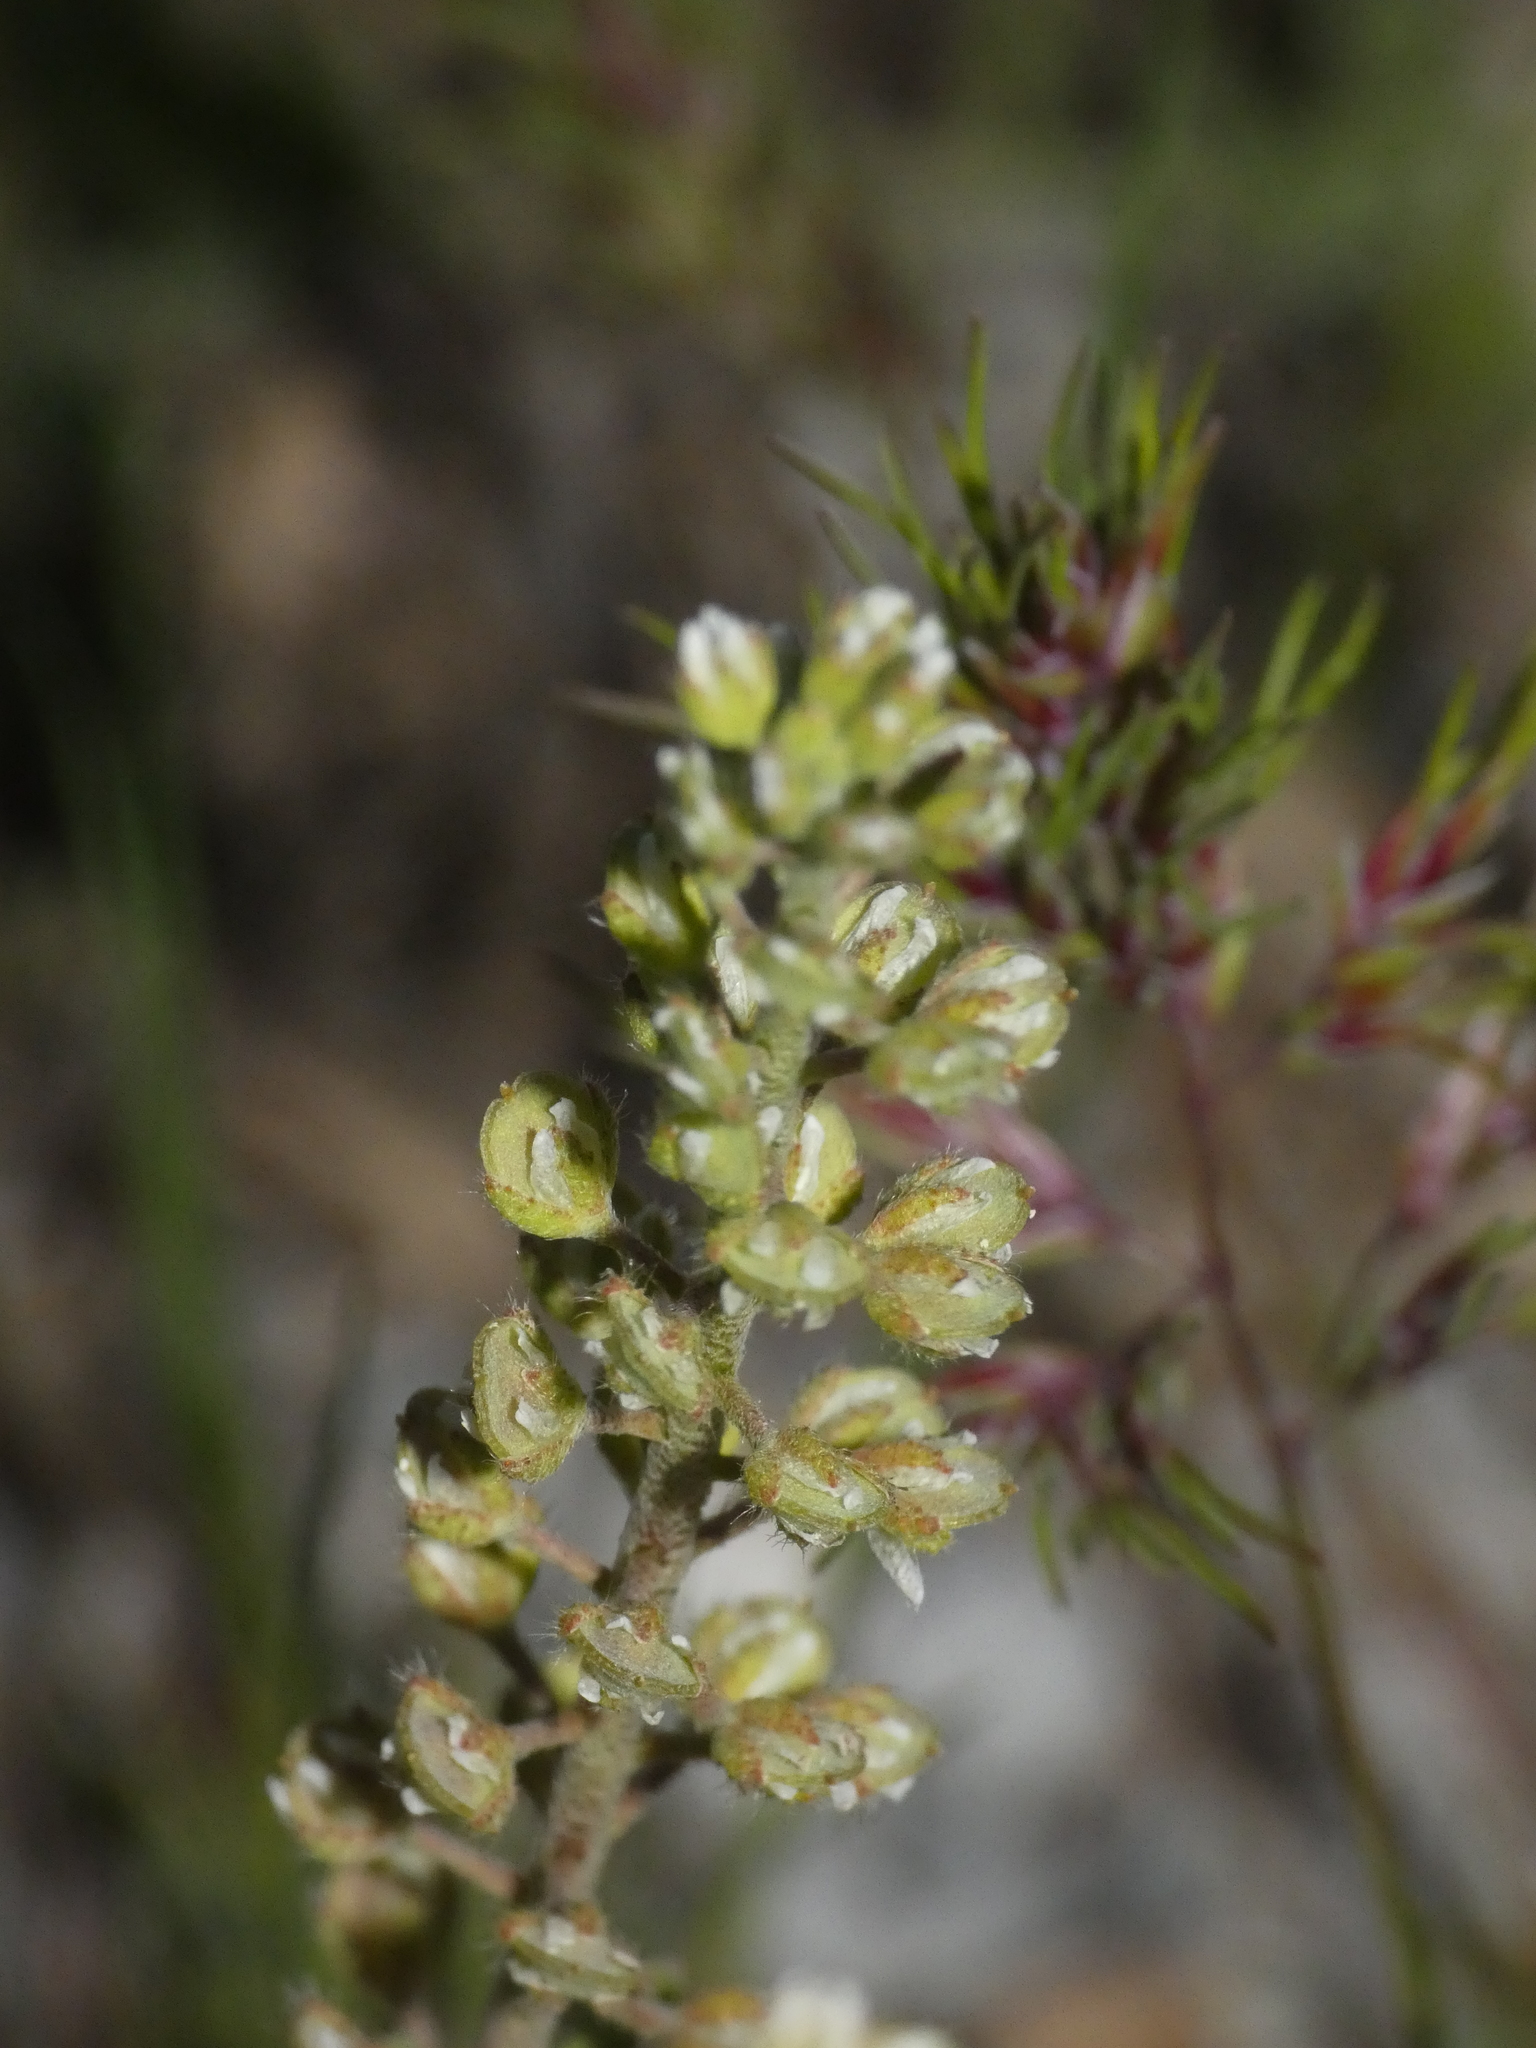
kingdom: Plantae
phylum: Tracheophyta
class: Magnoliopsida
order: Brassicales
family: Brassicaceae
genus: Alyssum
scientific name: Alyssum alyssoides
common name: Small alison
